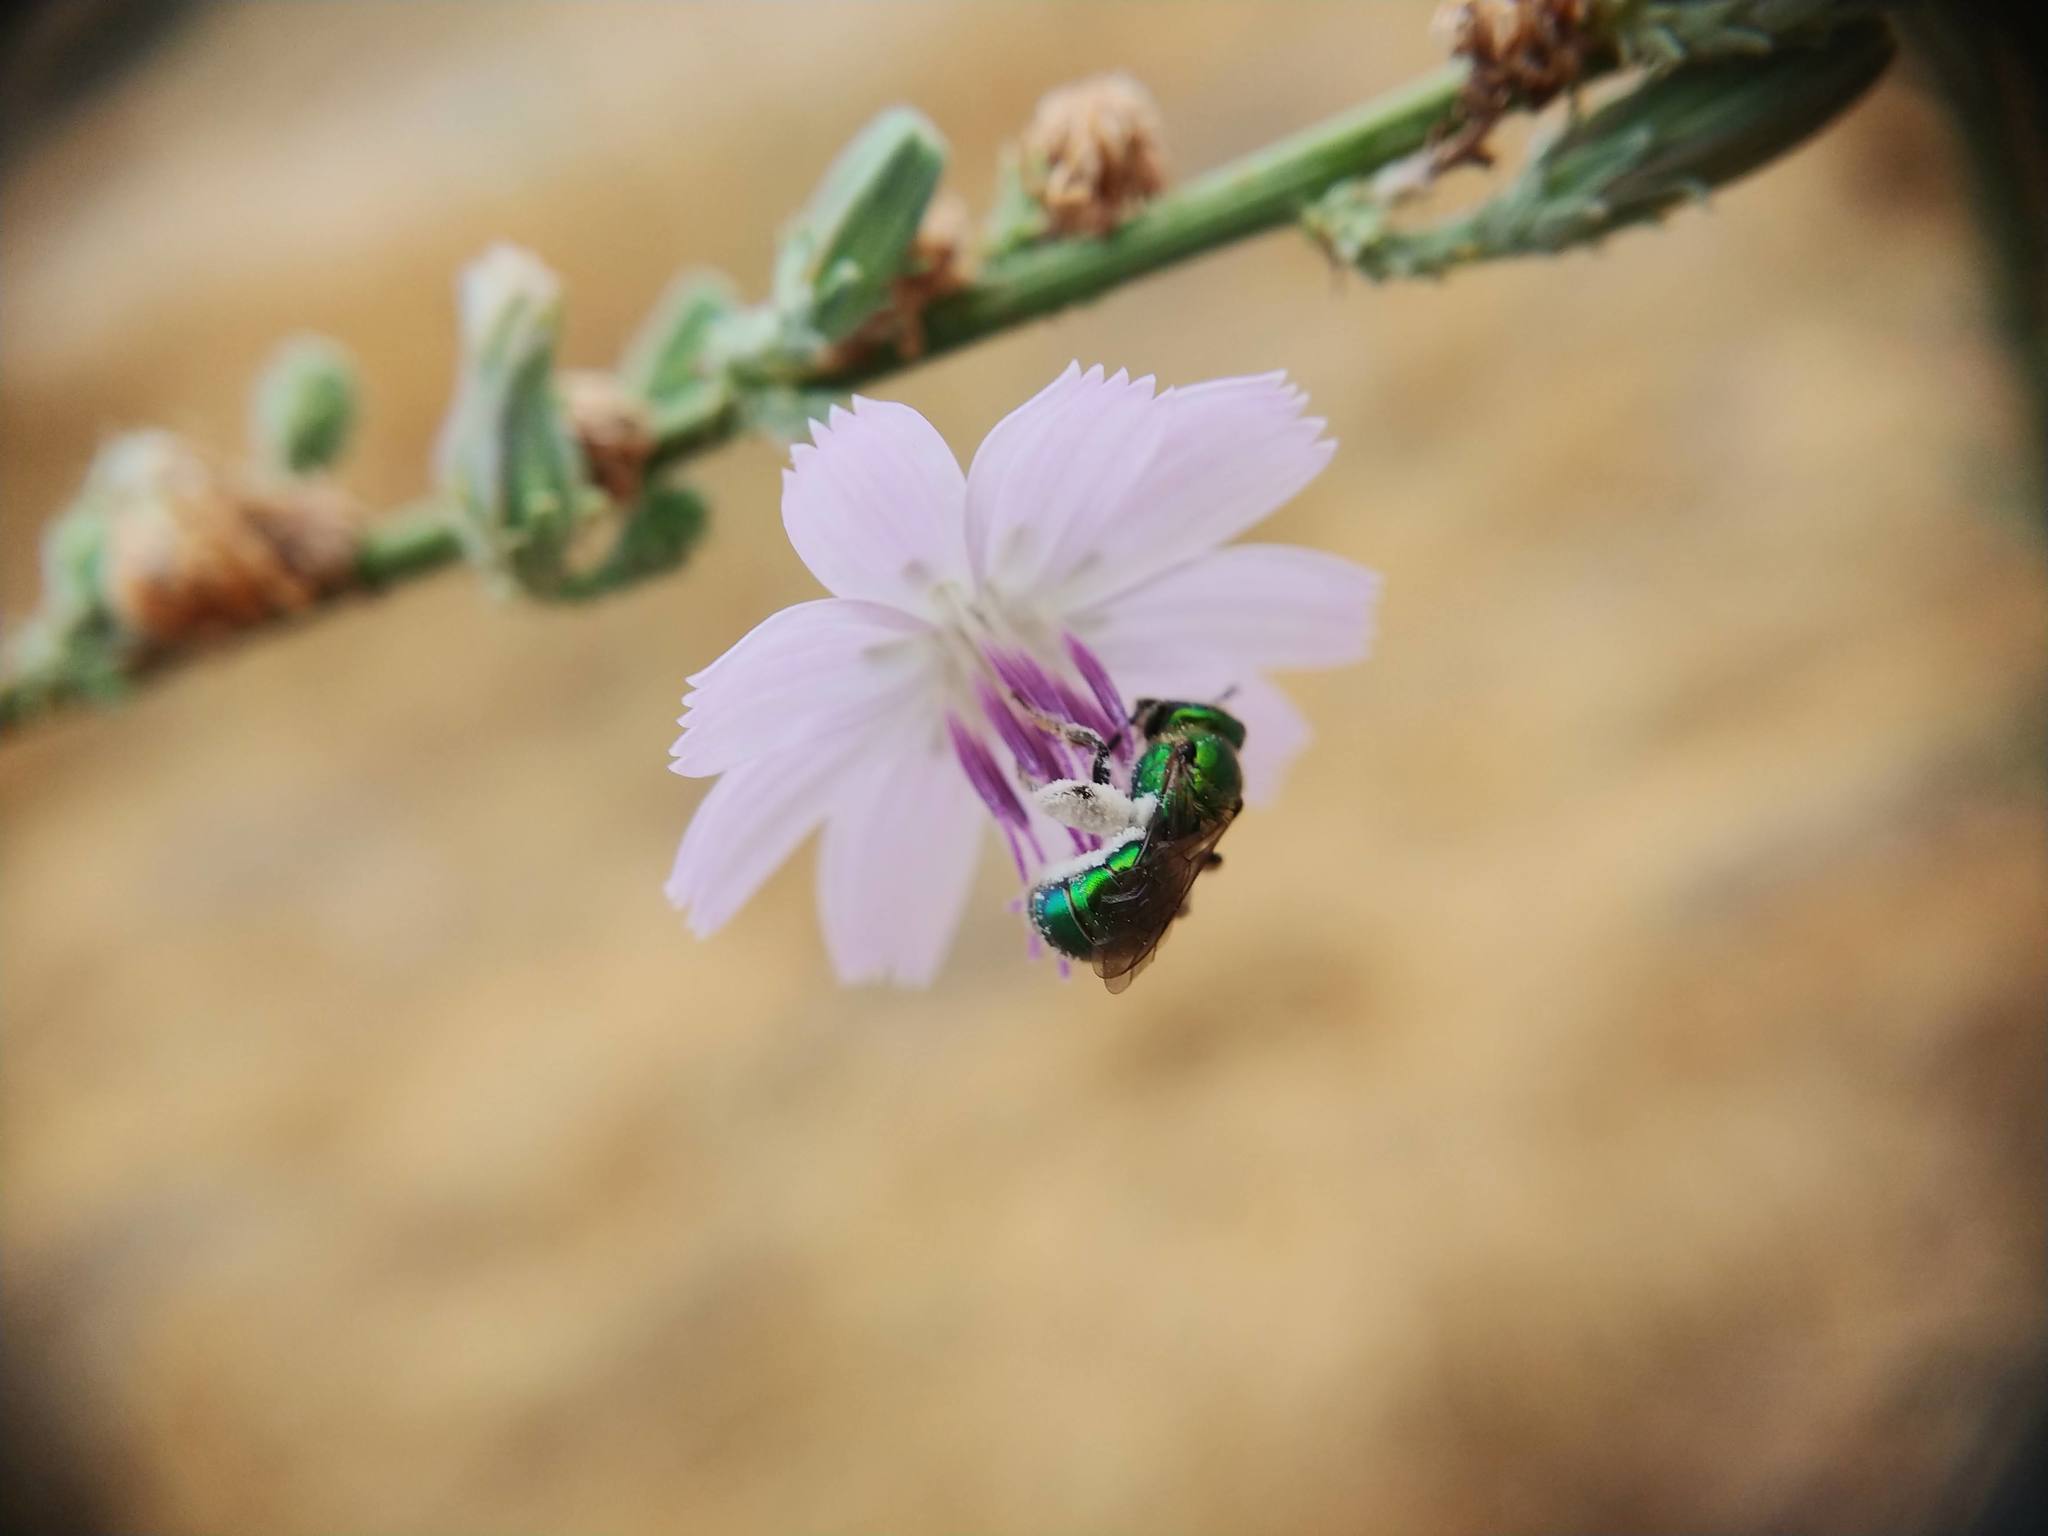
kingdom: Animalia
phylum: Arthropoda
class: Insecta
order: Hymenoptera
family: Halictidae
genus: Augochlorella
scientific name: Augochlorella pomoniella
